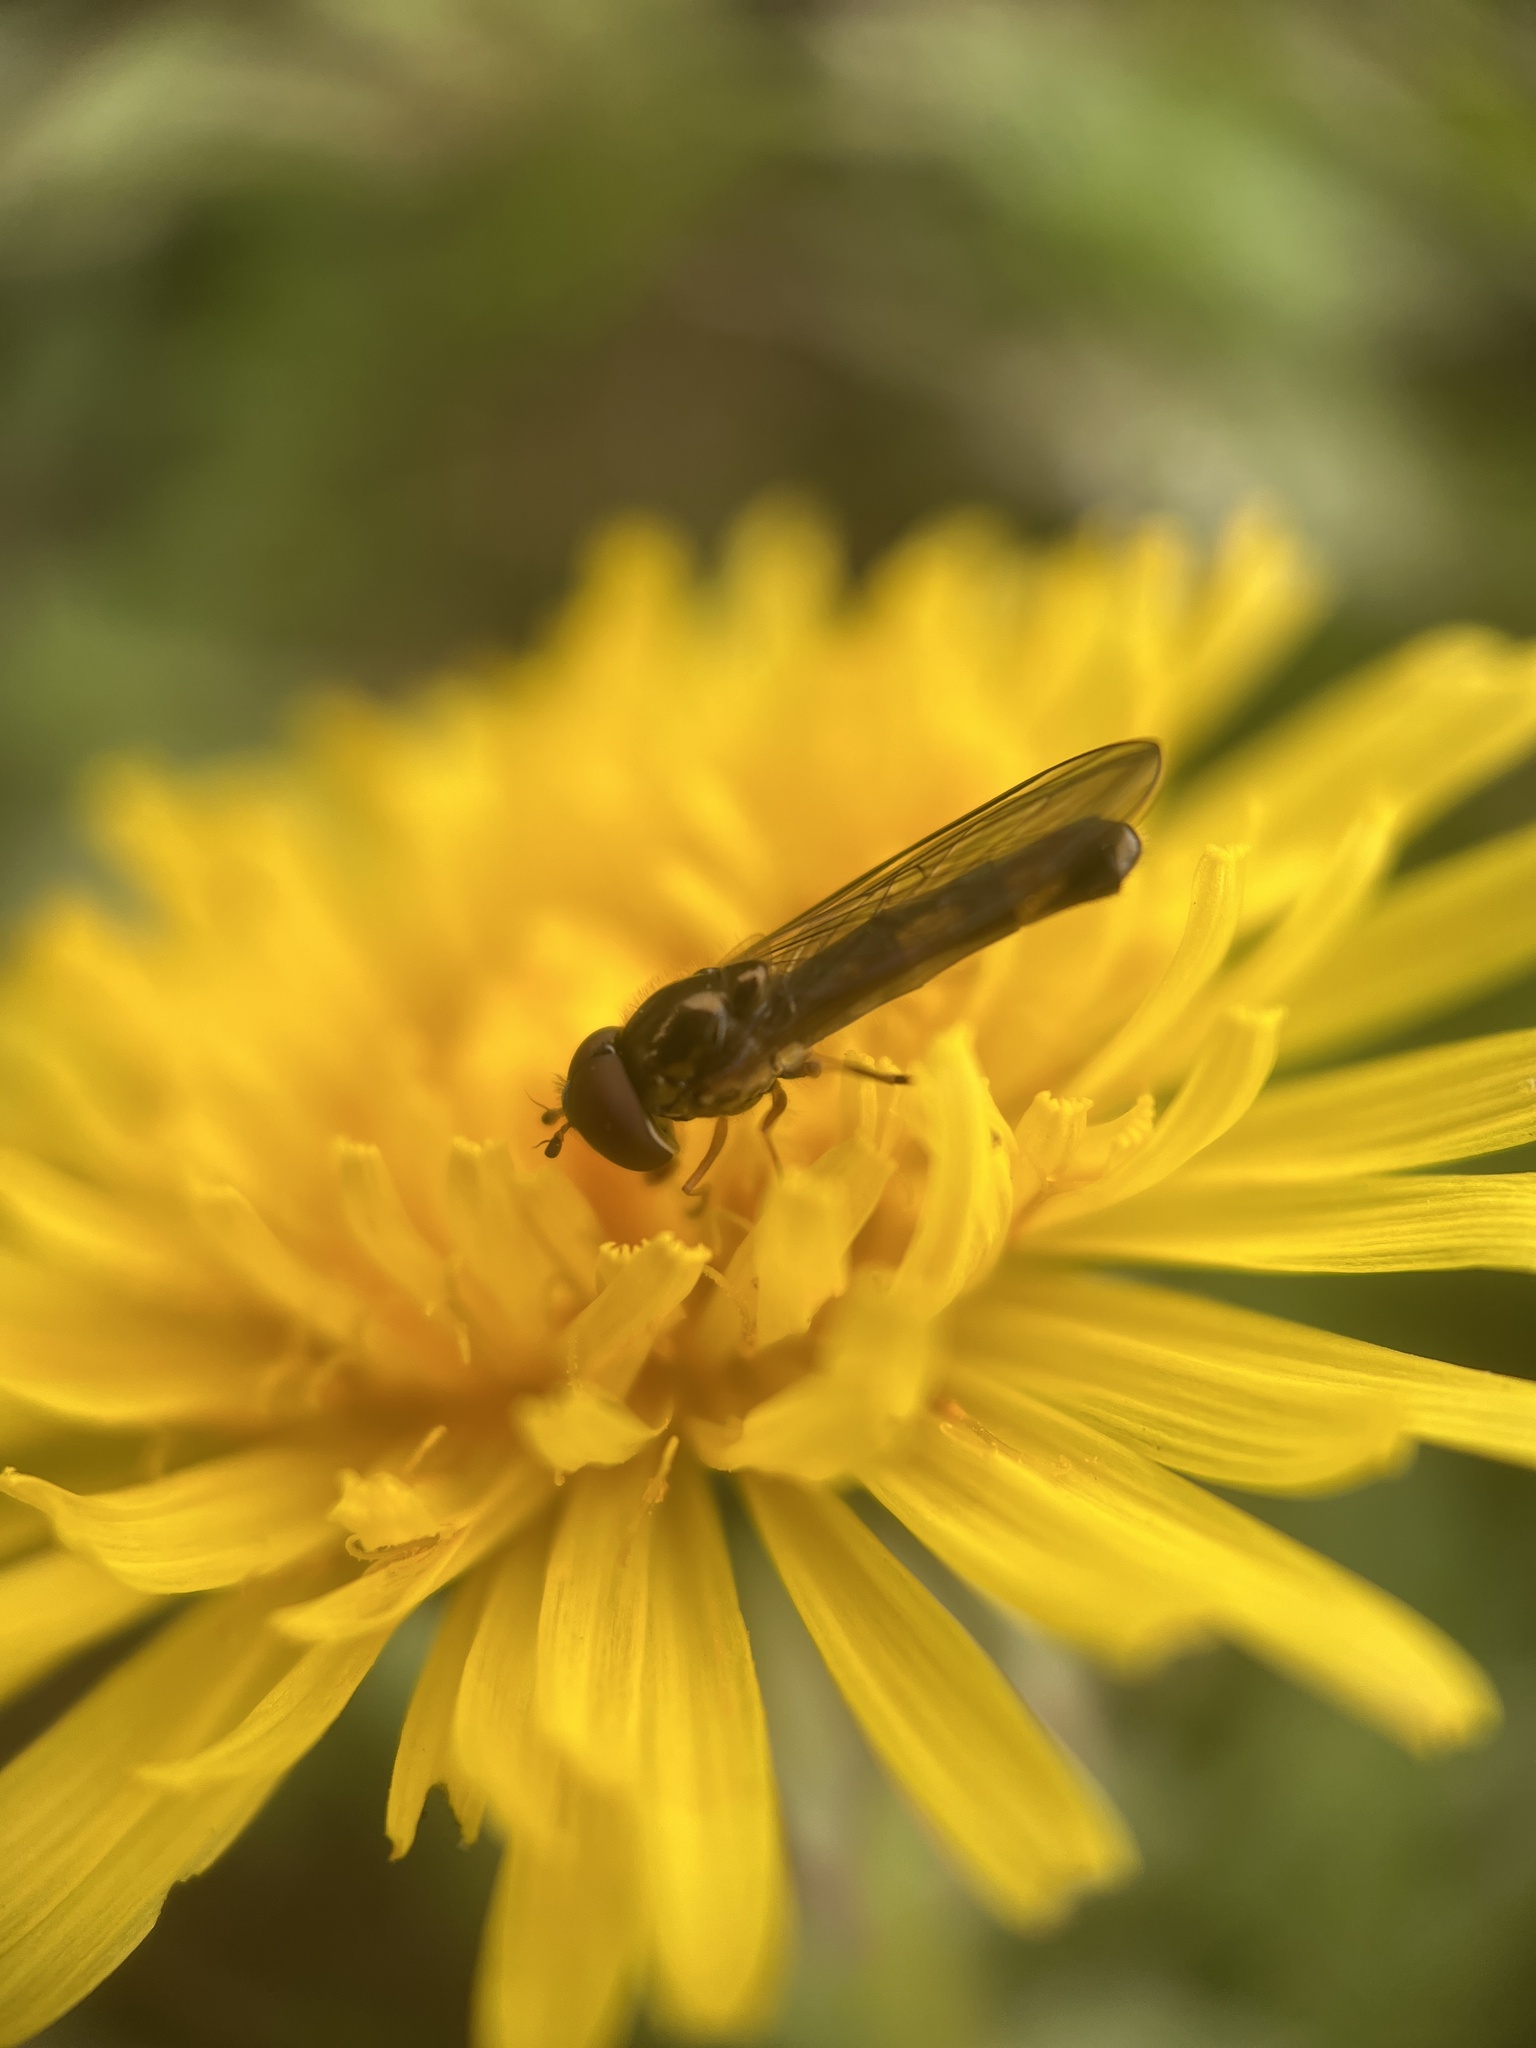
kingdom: Animalia
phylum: Arthropoda
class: Insecta
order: Diptera
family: Syrphidae
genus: Melanostoma
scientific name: Melanostoma mellina
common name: Hover fly
